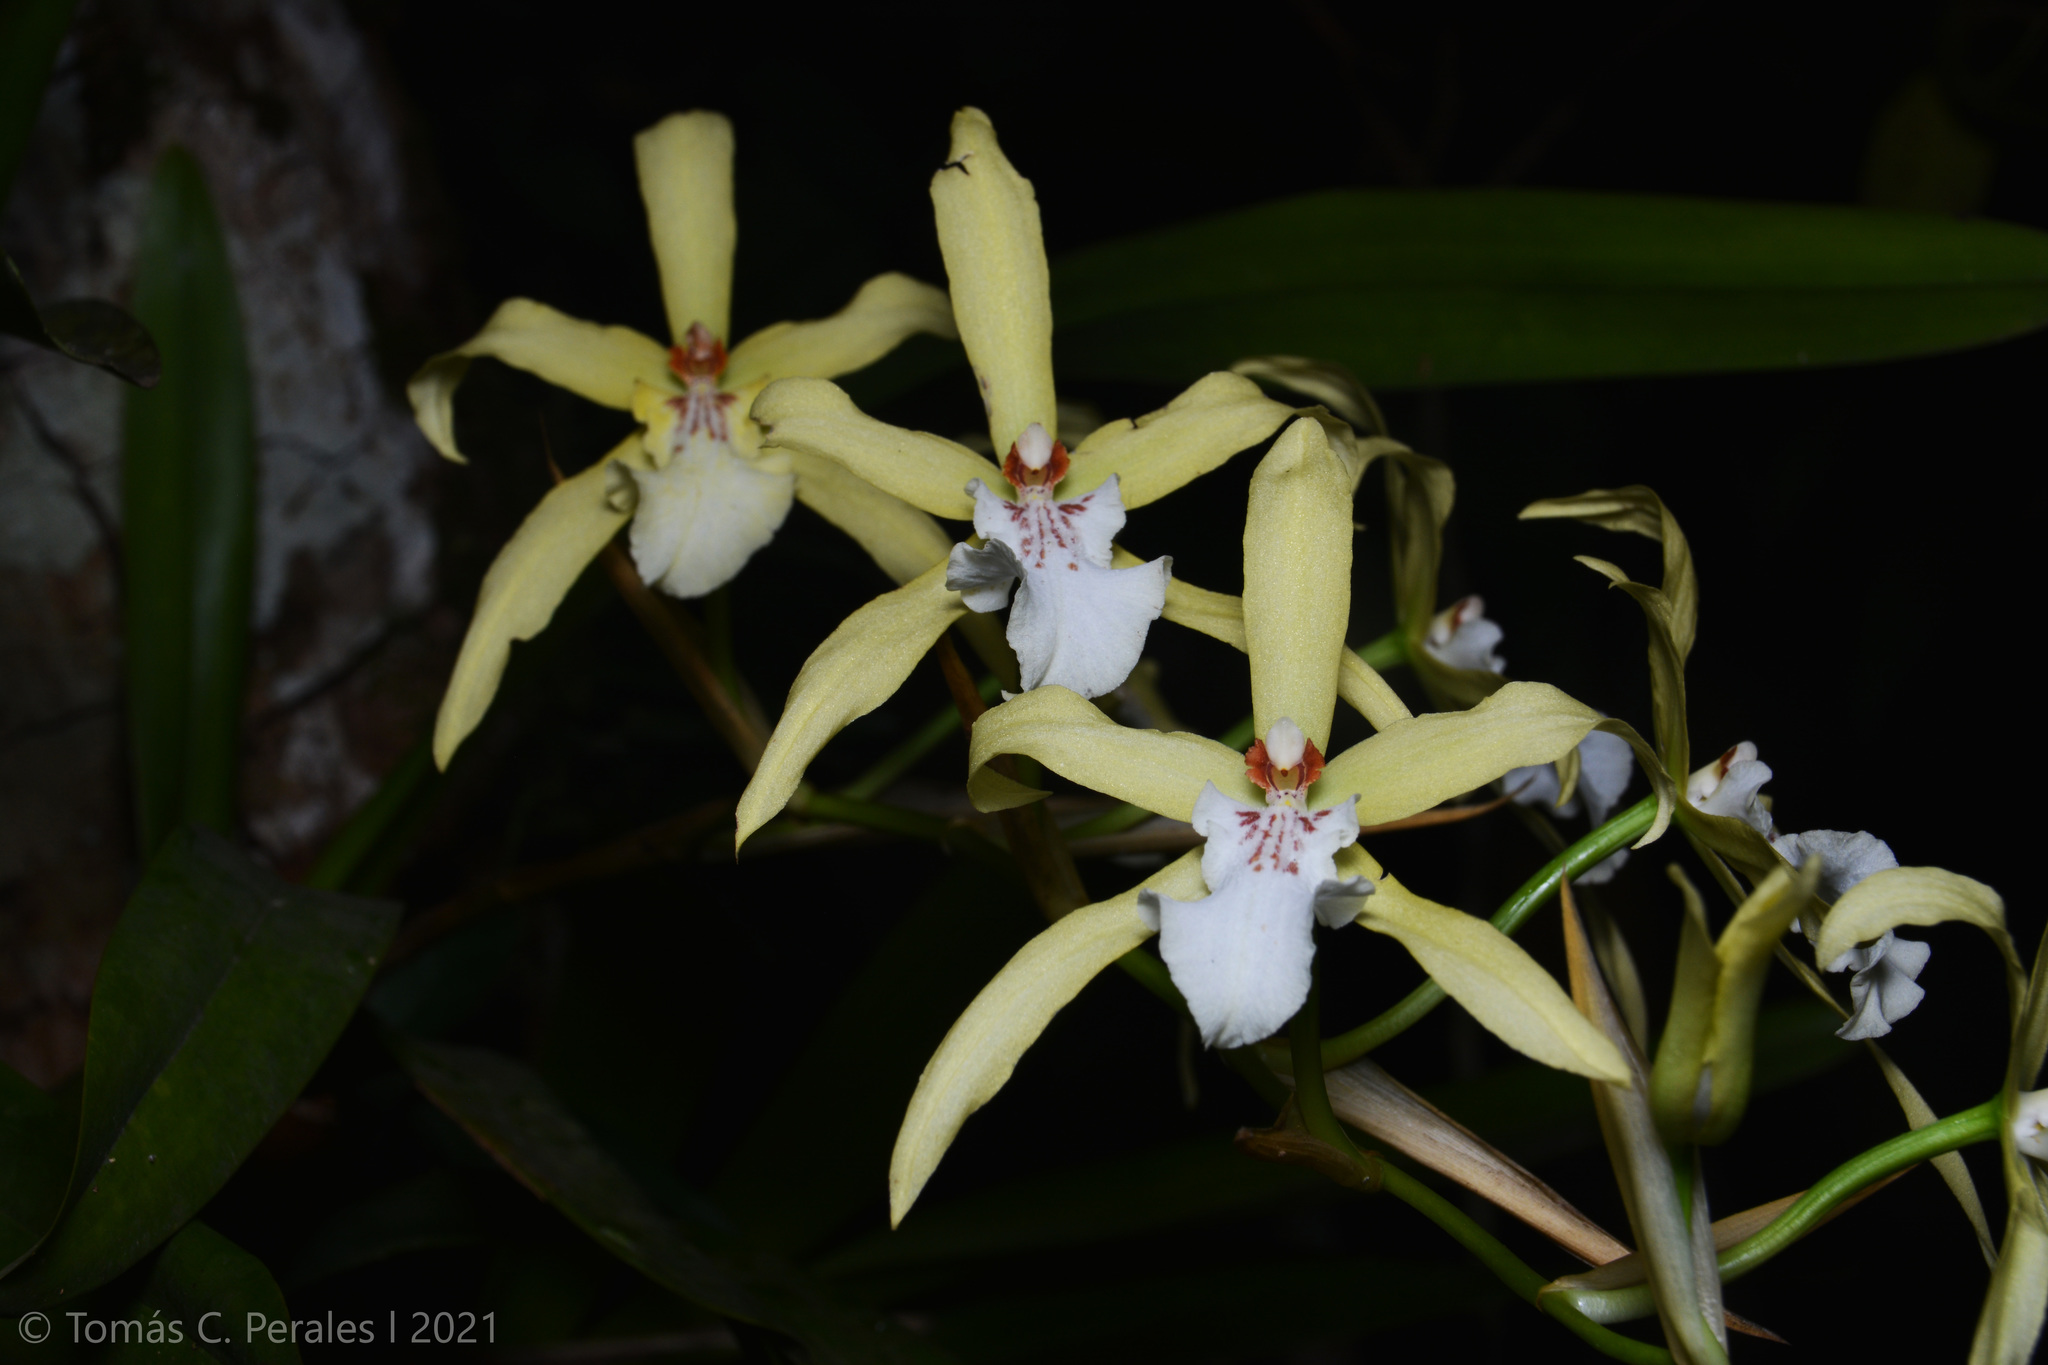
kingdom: Plantae
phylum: Tracheophyta
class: Liliopsida
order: Asparagales
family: Orchidaceae
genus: Miltonia
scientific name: Miltonia flavescens
